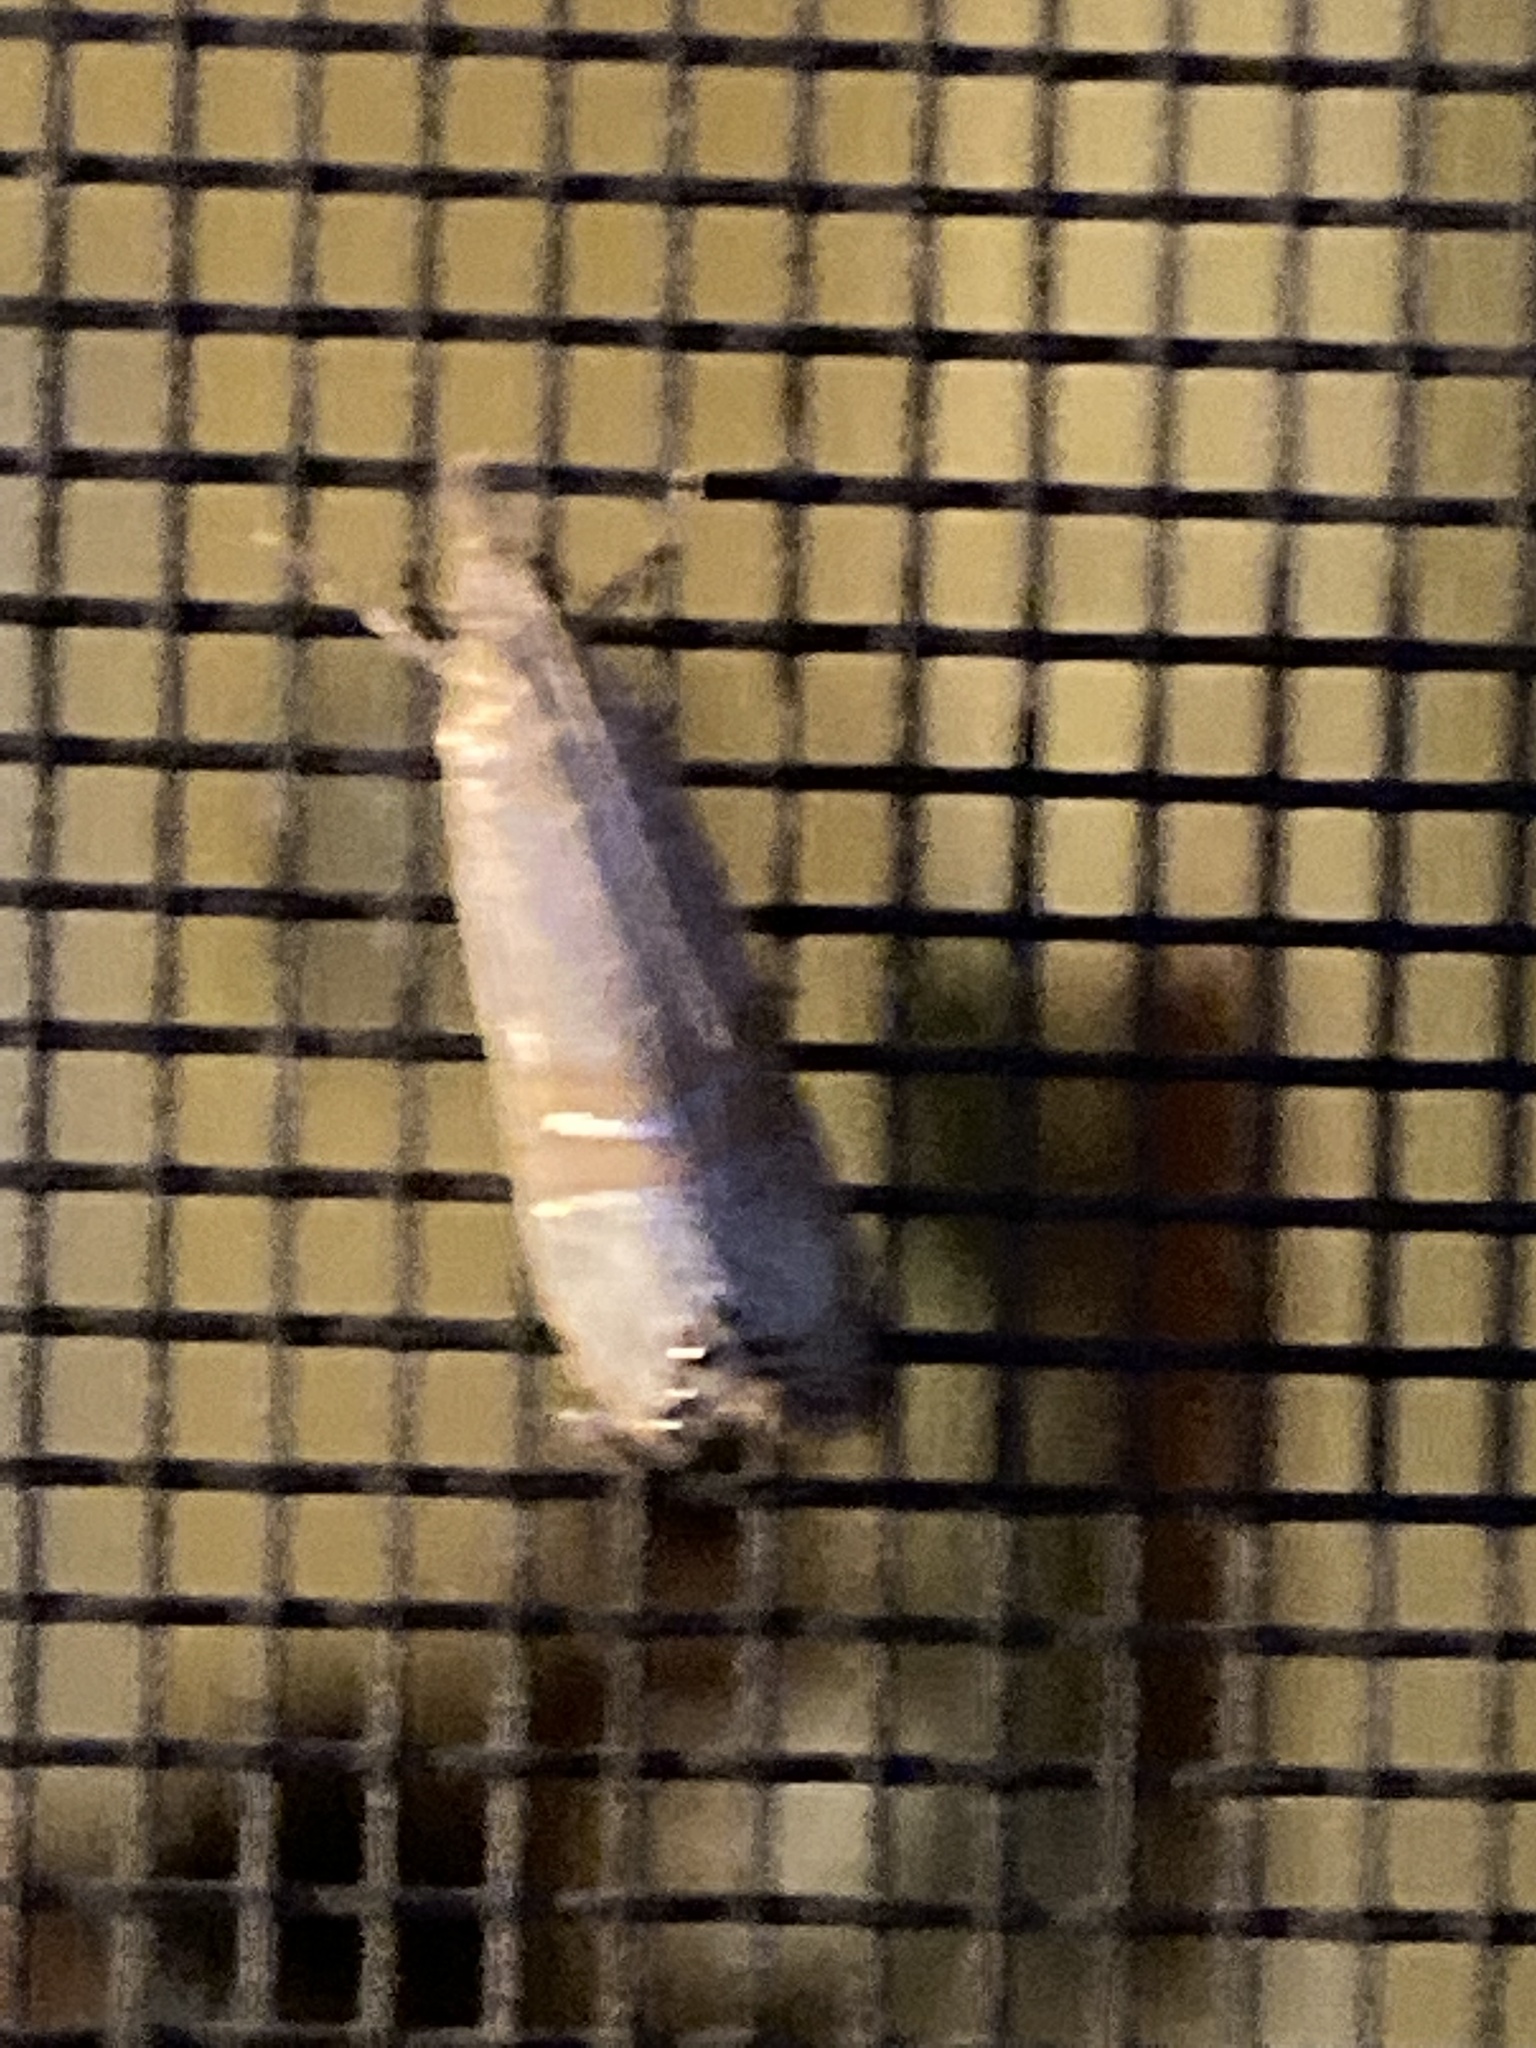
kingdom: Animalia
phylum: Arthropoda
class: Insecta
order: Lepidoptera
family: Crambidae
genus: Euchromius
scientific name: Euchromius ocellea
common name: Necklace veneer moth
